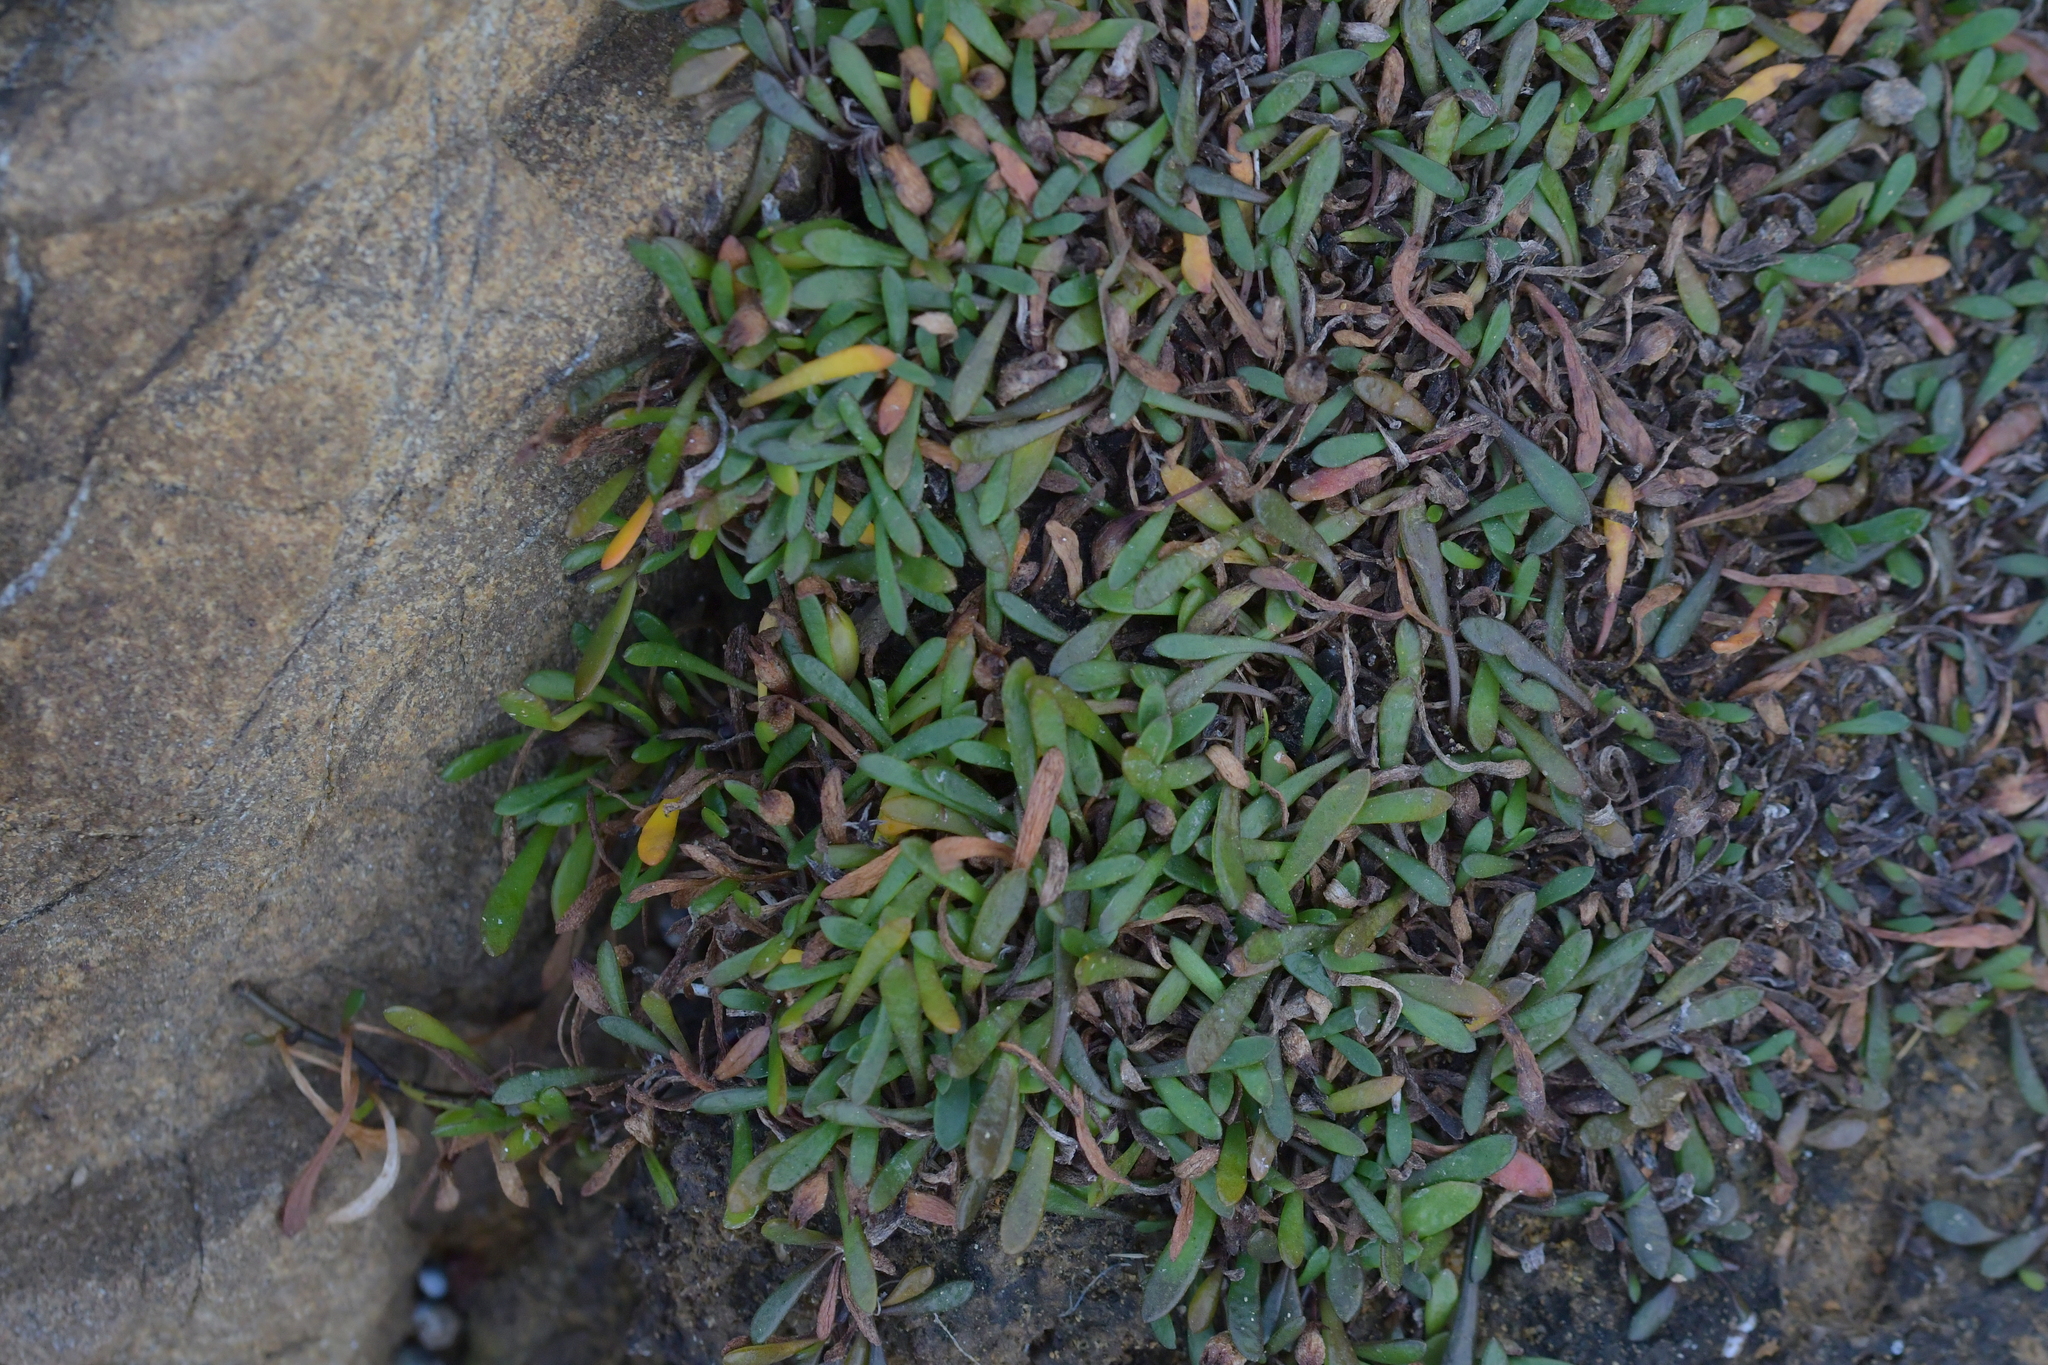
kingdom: Plantae
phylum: Tracheophyta
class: Magnoliopsida
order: Asterales
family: Goodeniaceae
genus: Goodenia
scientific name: Goodenia radicans
